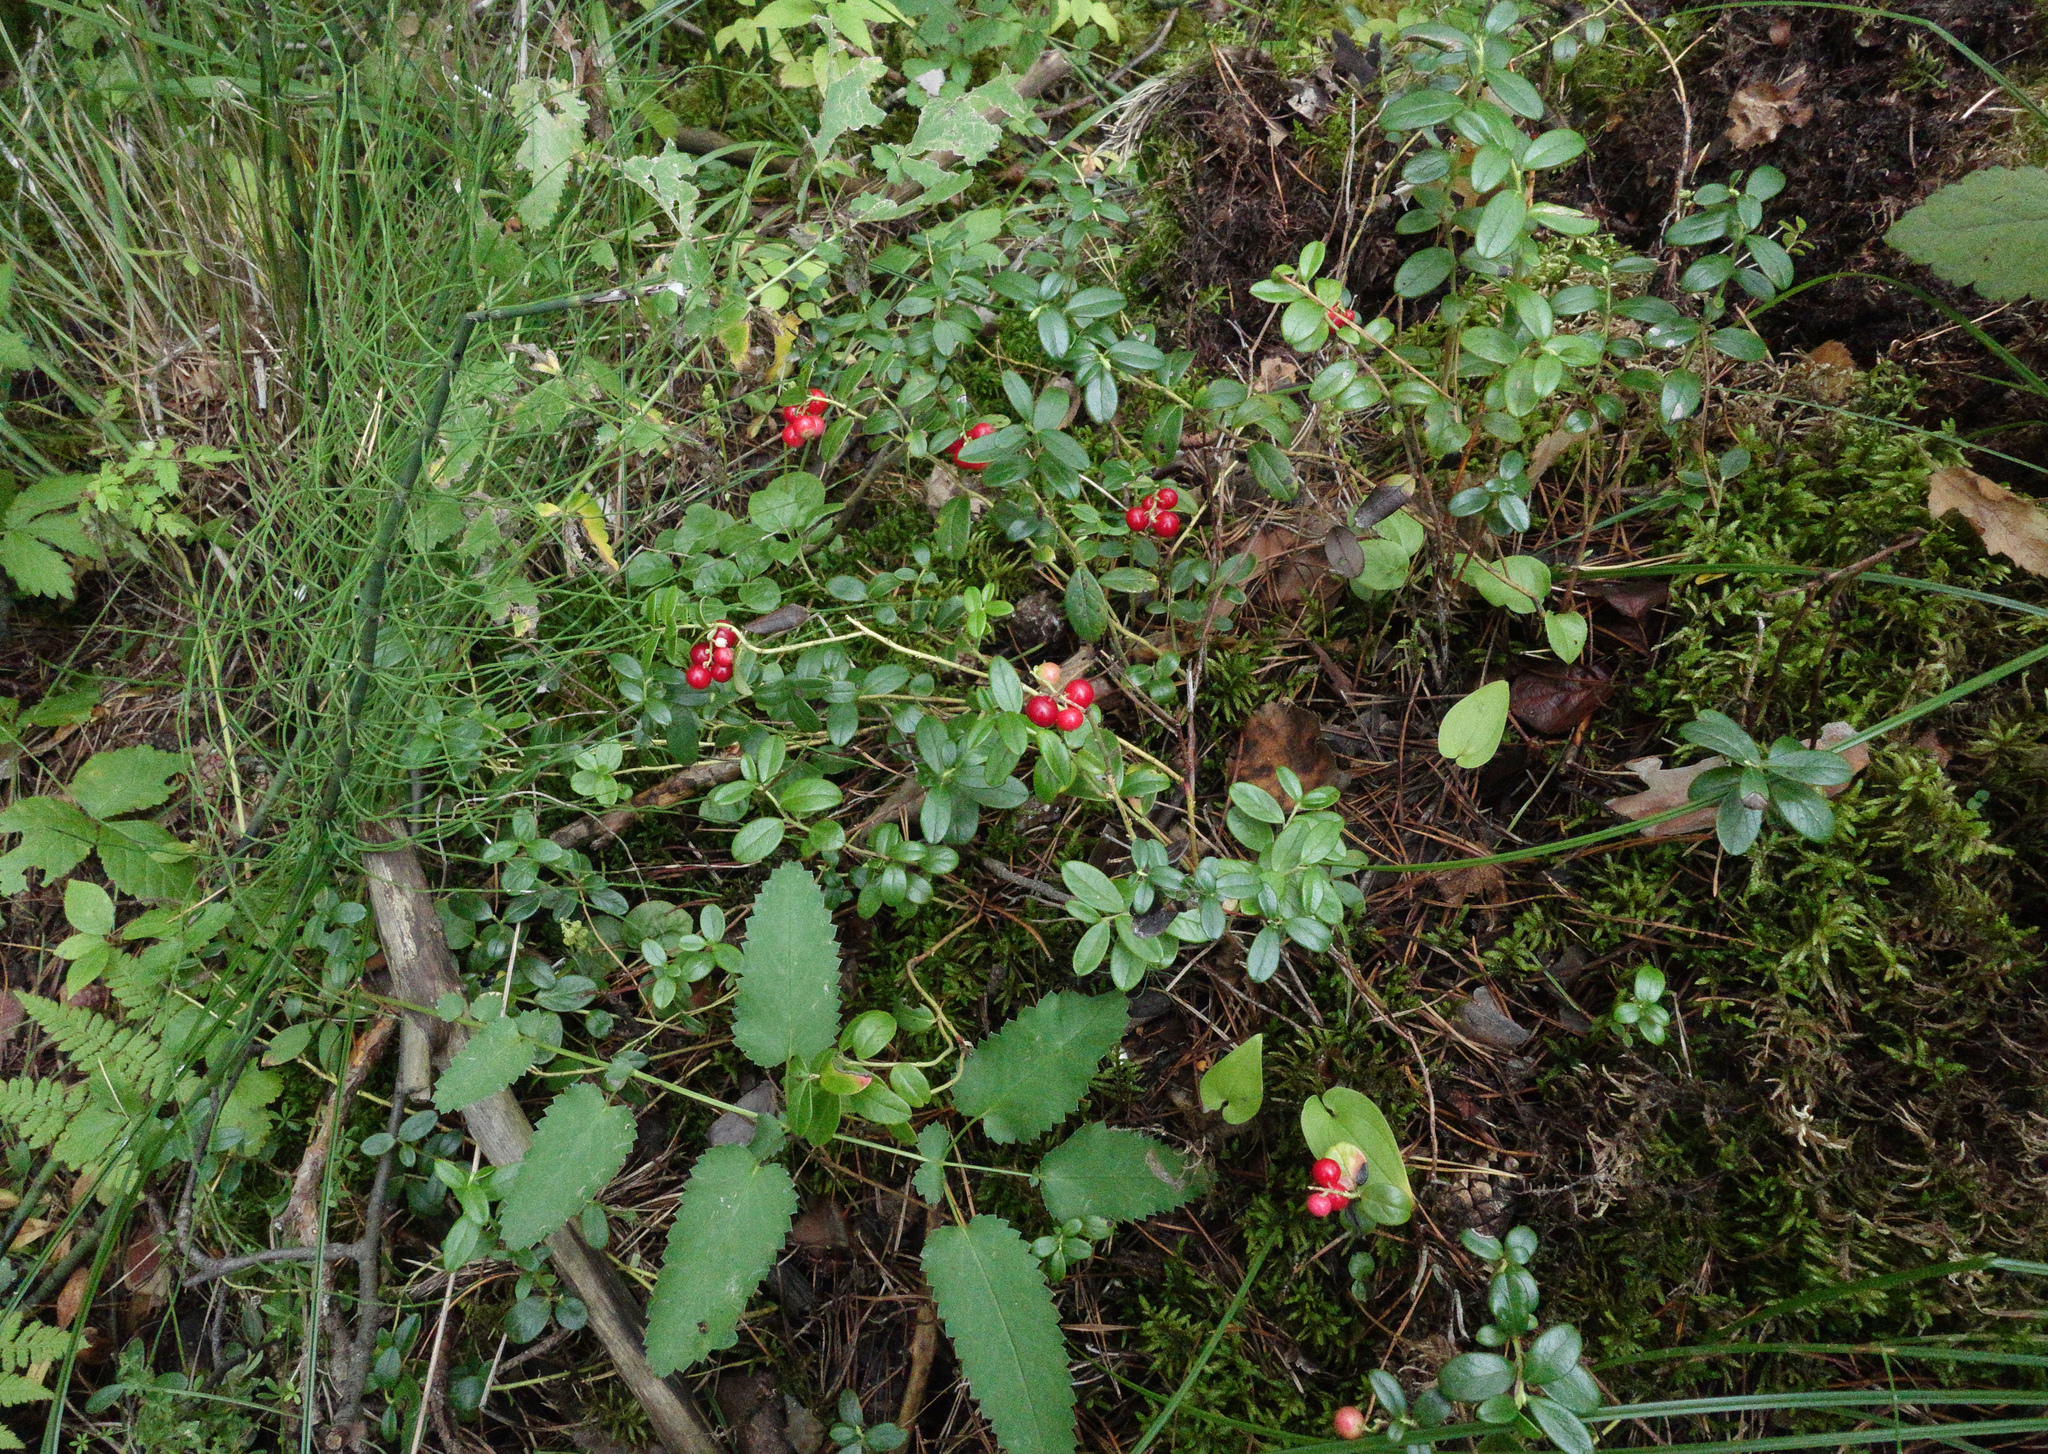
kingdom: Plantae
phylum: Tracheophyta
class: Magnoliopsida
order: Ericales
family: Ericaceae
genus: Vaccinium
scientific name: Vaccinium vitis-idaea
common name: Cowberry
